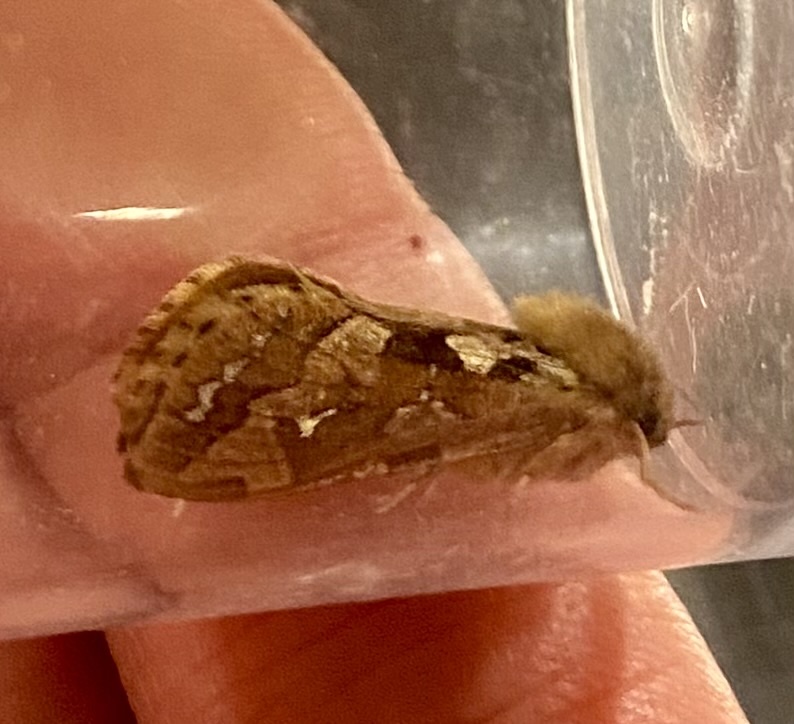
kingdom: Animalia
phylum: Arthropoda
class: Insecta
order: Lepidoptera
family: Hepialidae
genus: Korscheltellus
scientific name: Korscheltellus fusconebulosus
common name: Map-winged swift
